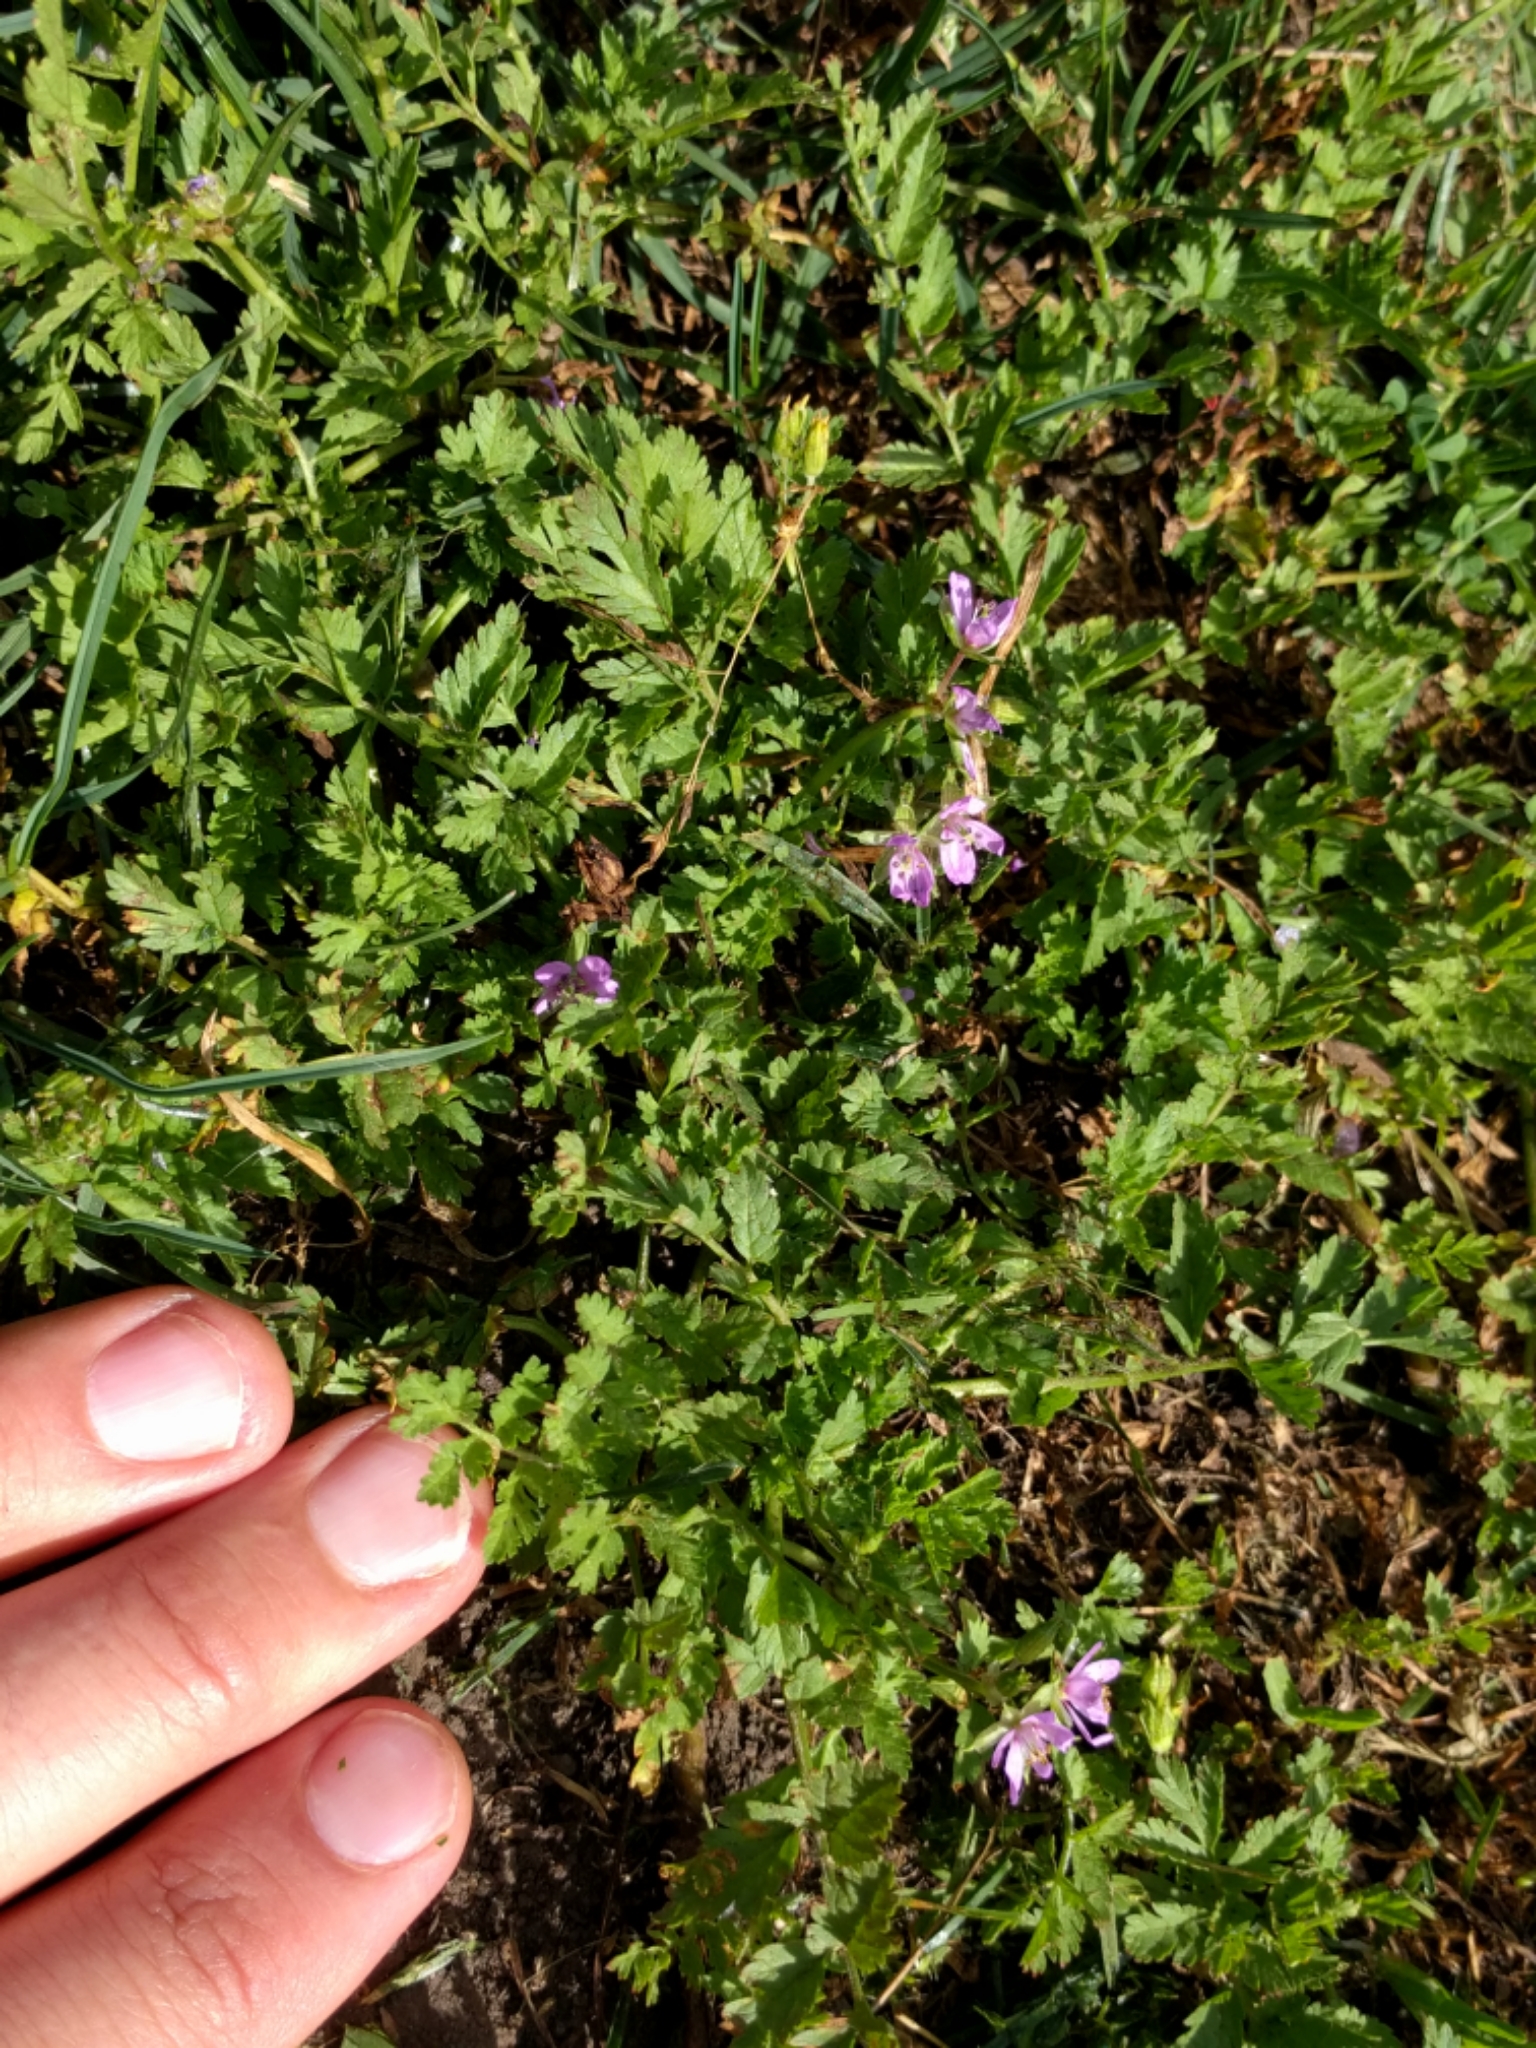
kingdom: Plantae
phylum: Tracheophyta
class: Magnoliopsida
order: Geraniales
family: Geraniaceae
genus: Erodium
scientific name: Erodium moschatum
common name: Musk stork's-bill
